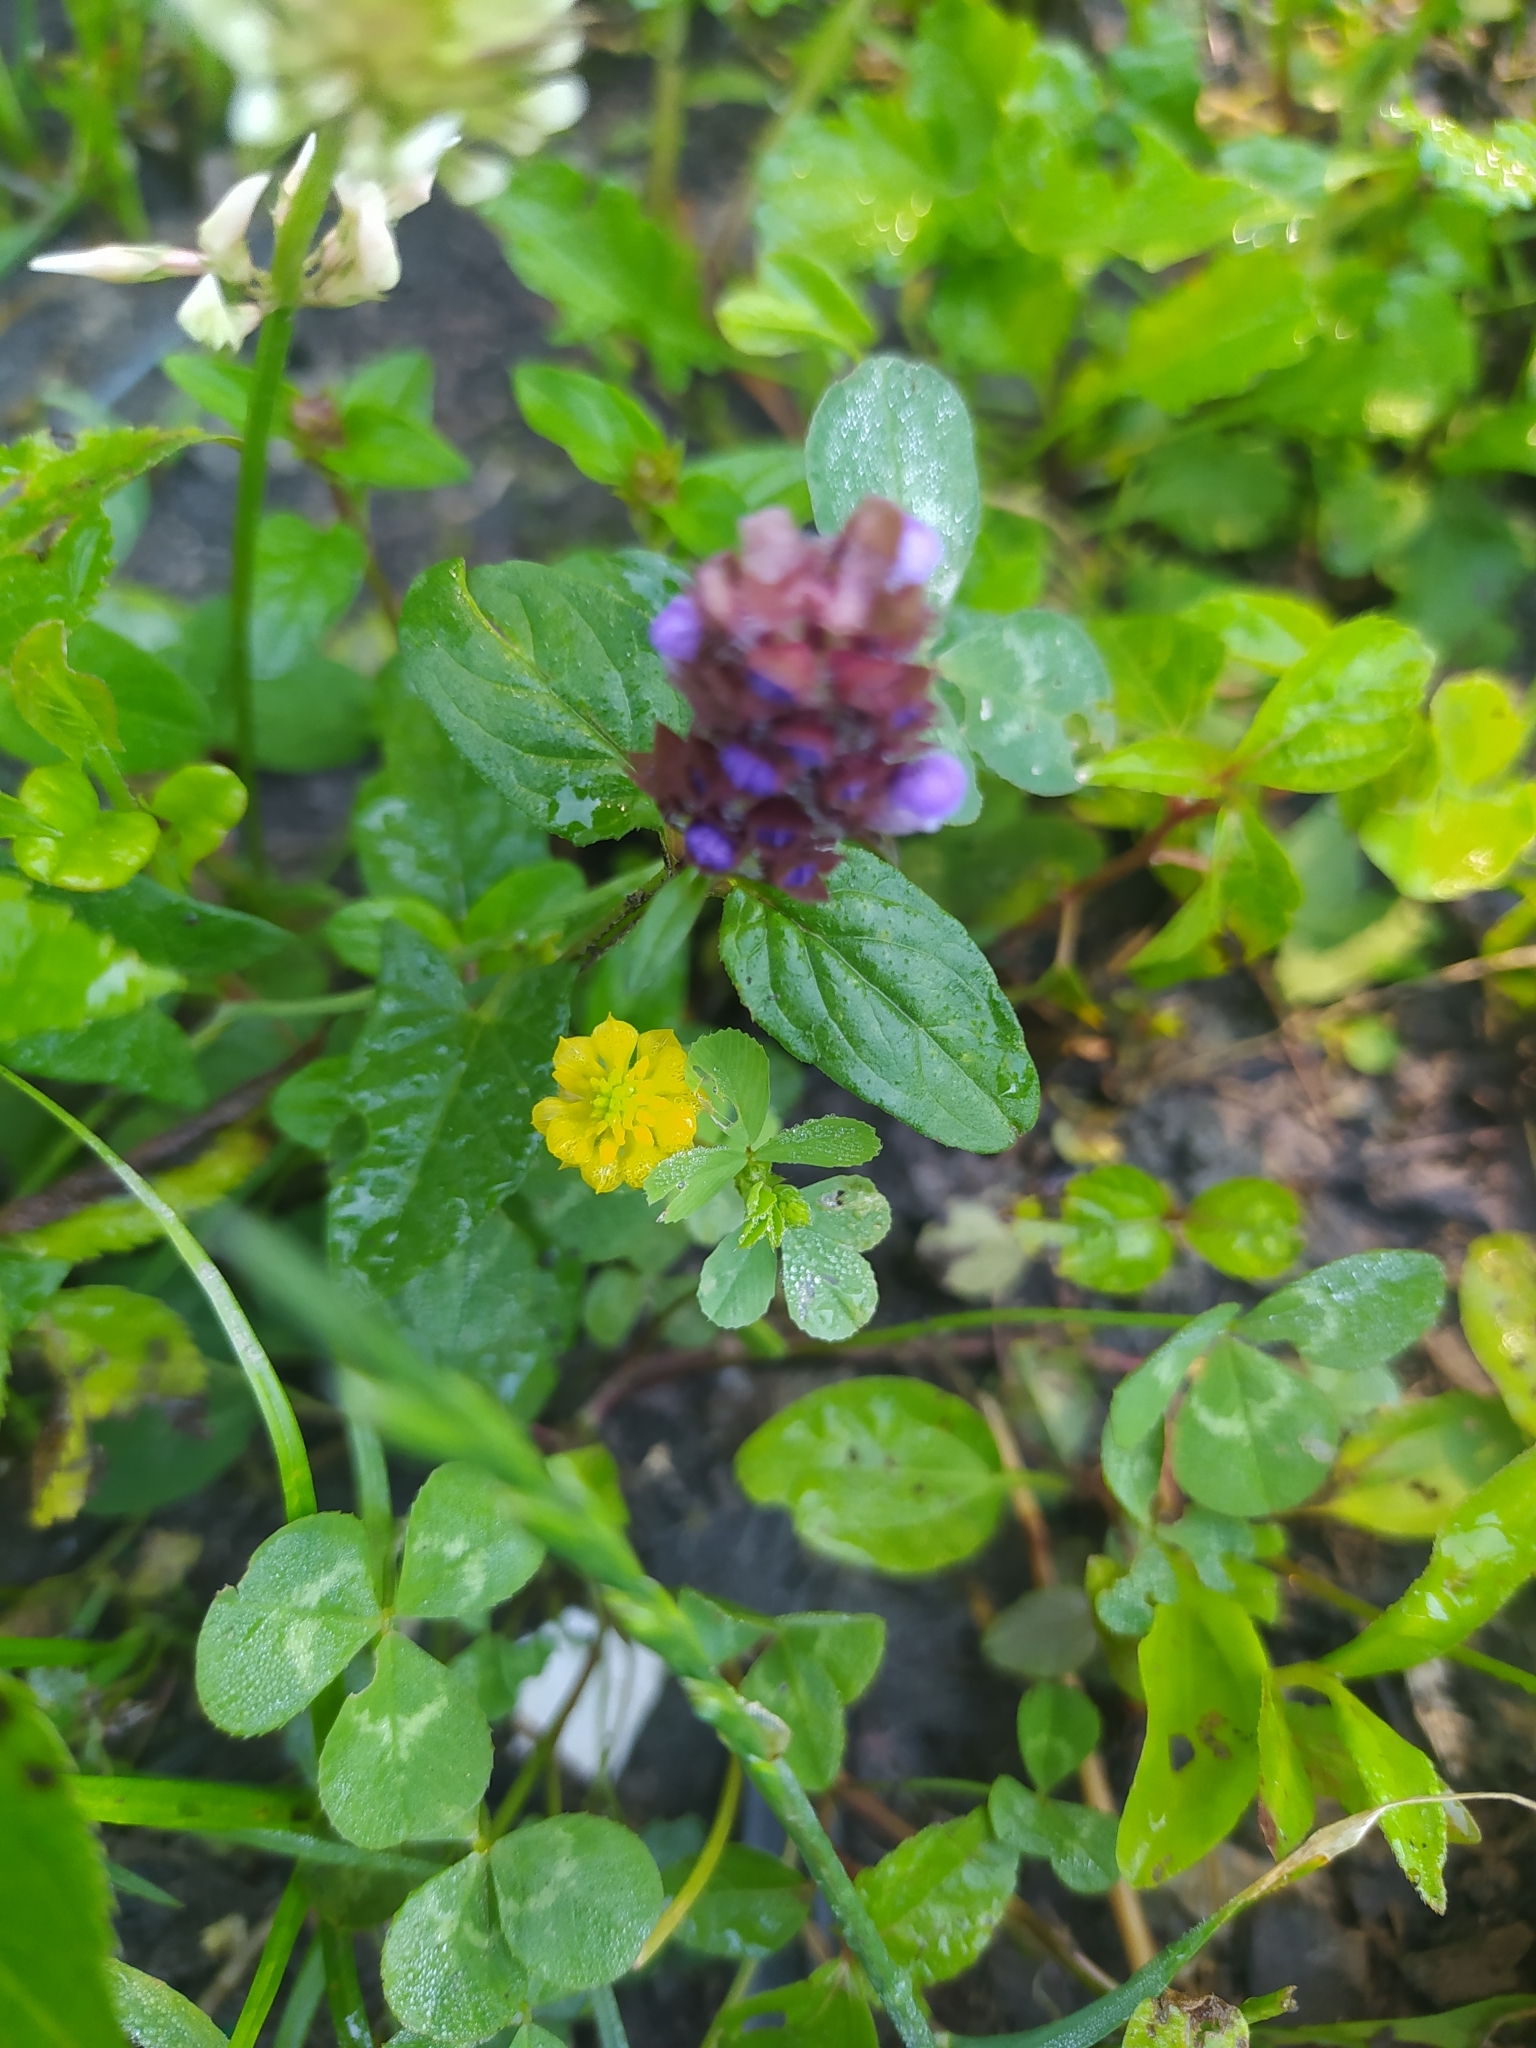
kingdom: Plantae
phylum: Tracheophyta
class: Magnoliopsida
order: Lamiales
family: Lamiaceae
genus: Prunella
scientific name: Prunella vulgaris
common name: Heal-all
